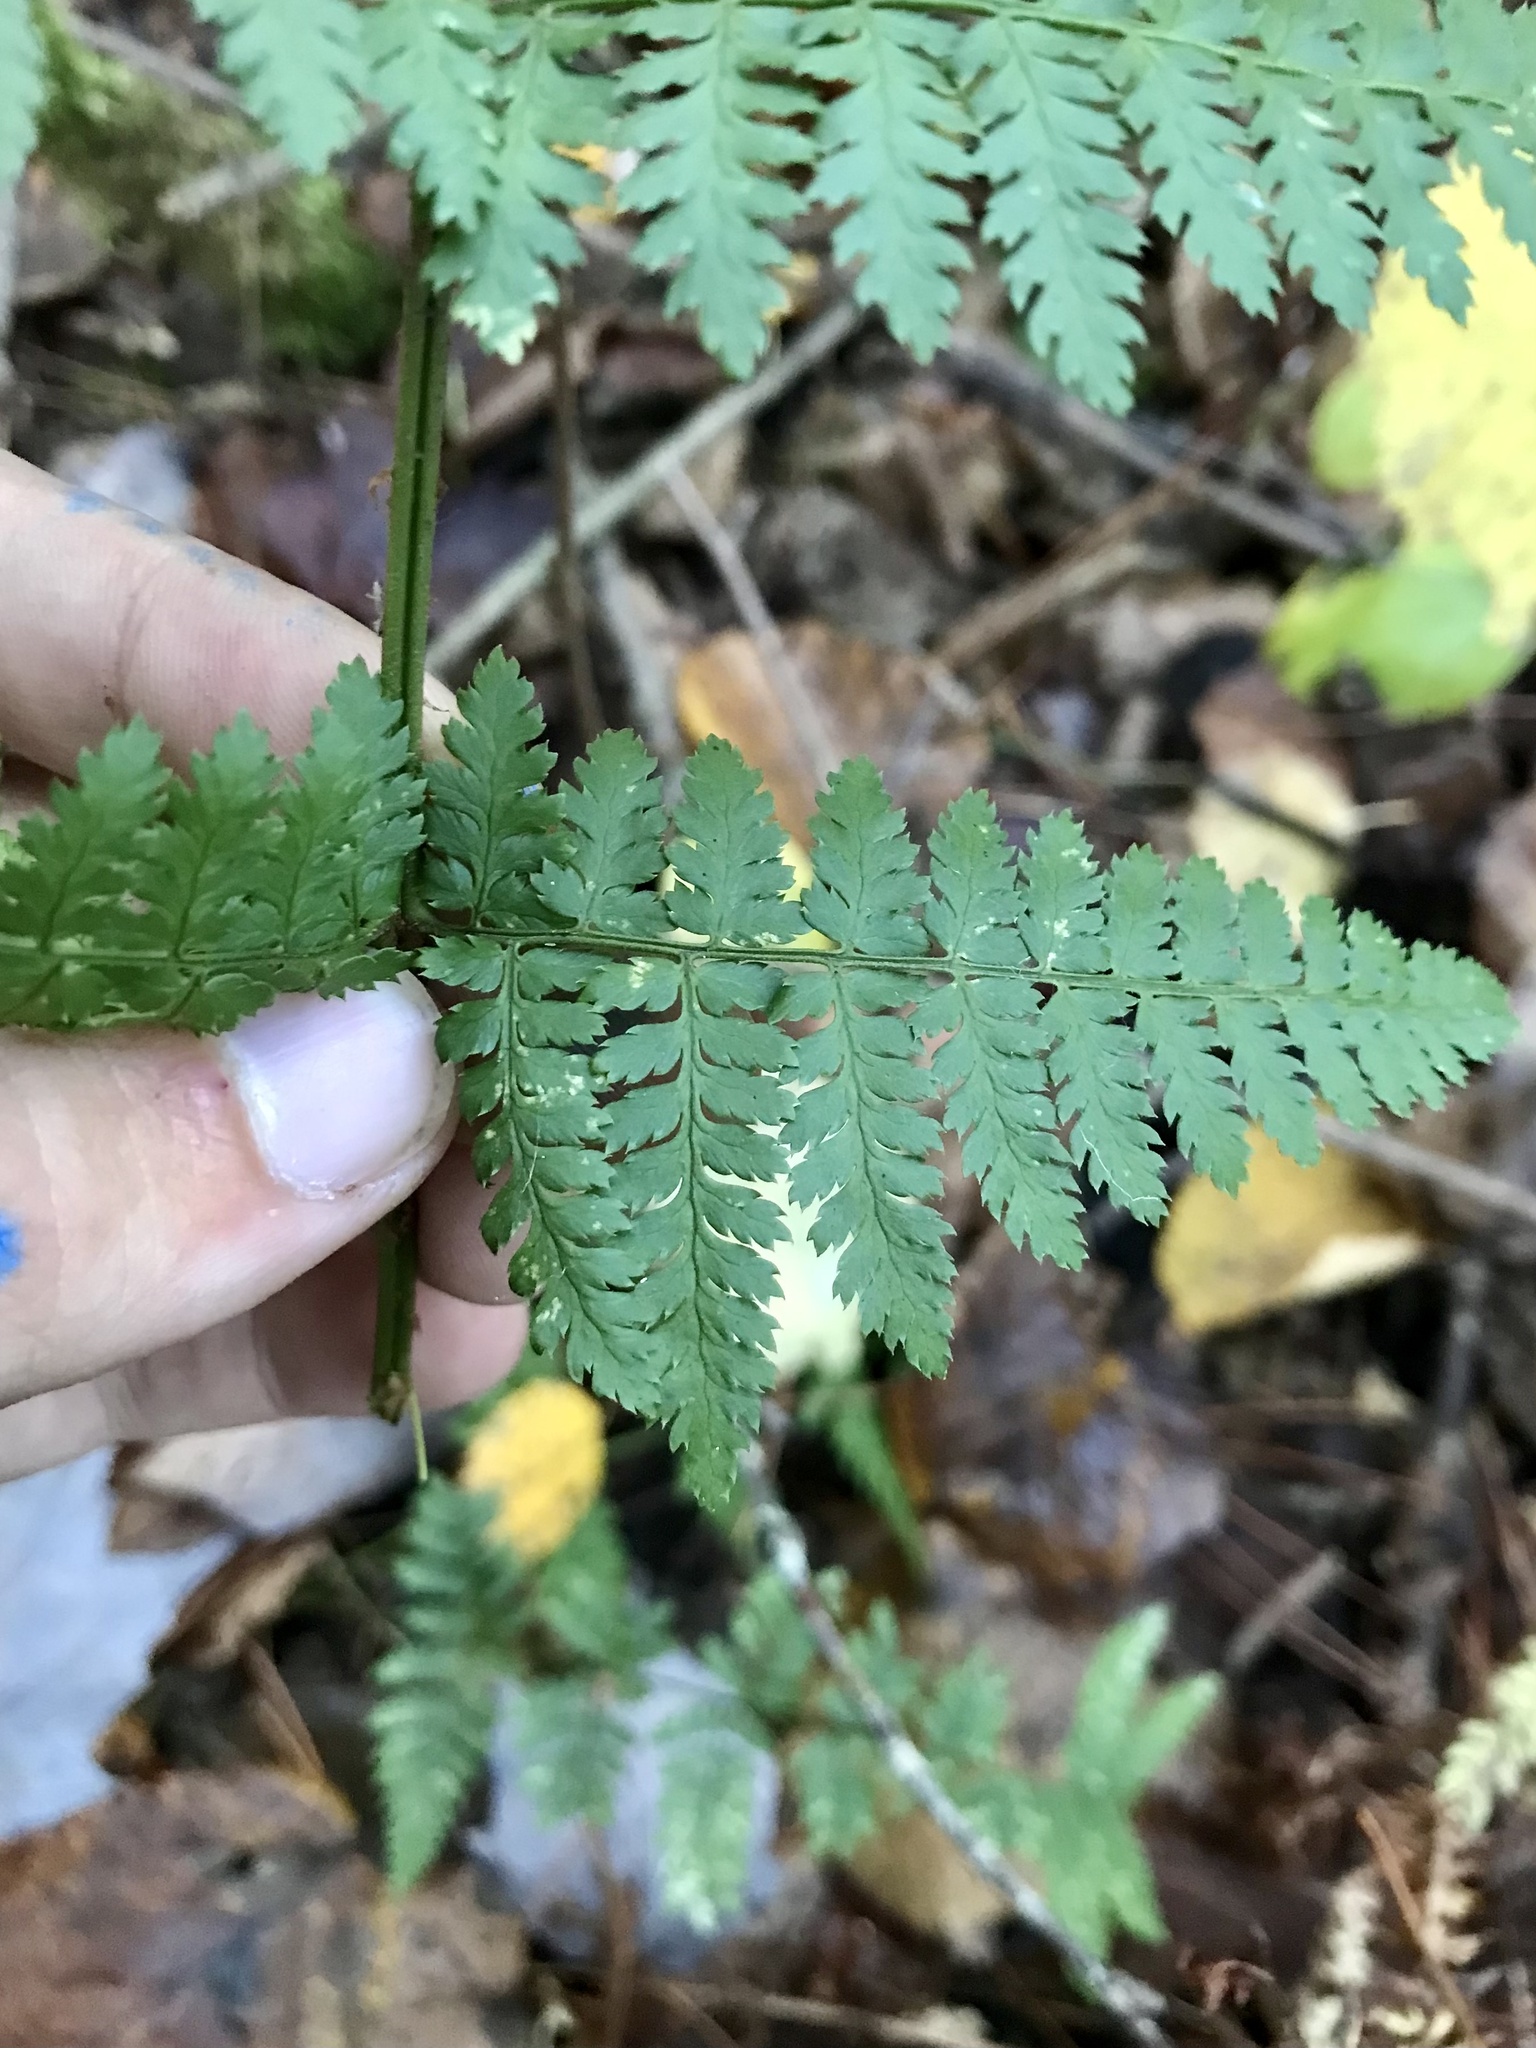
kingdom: Plantae
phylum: Tracheophyta
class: Polypodiopsida
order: Polypodiales
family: Dryopteridaceae
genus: Dryopteris
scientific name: Dryopteris intermedia
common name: Evergreen wood fern
